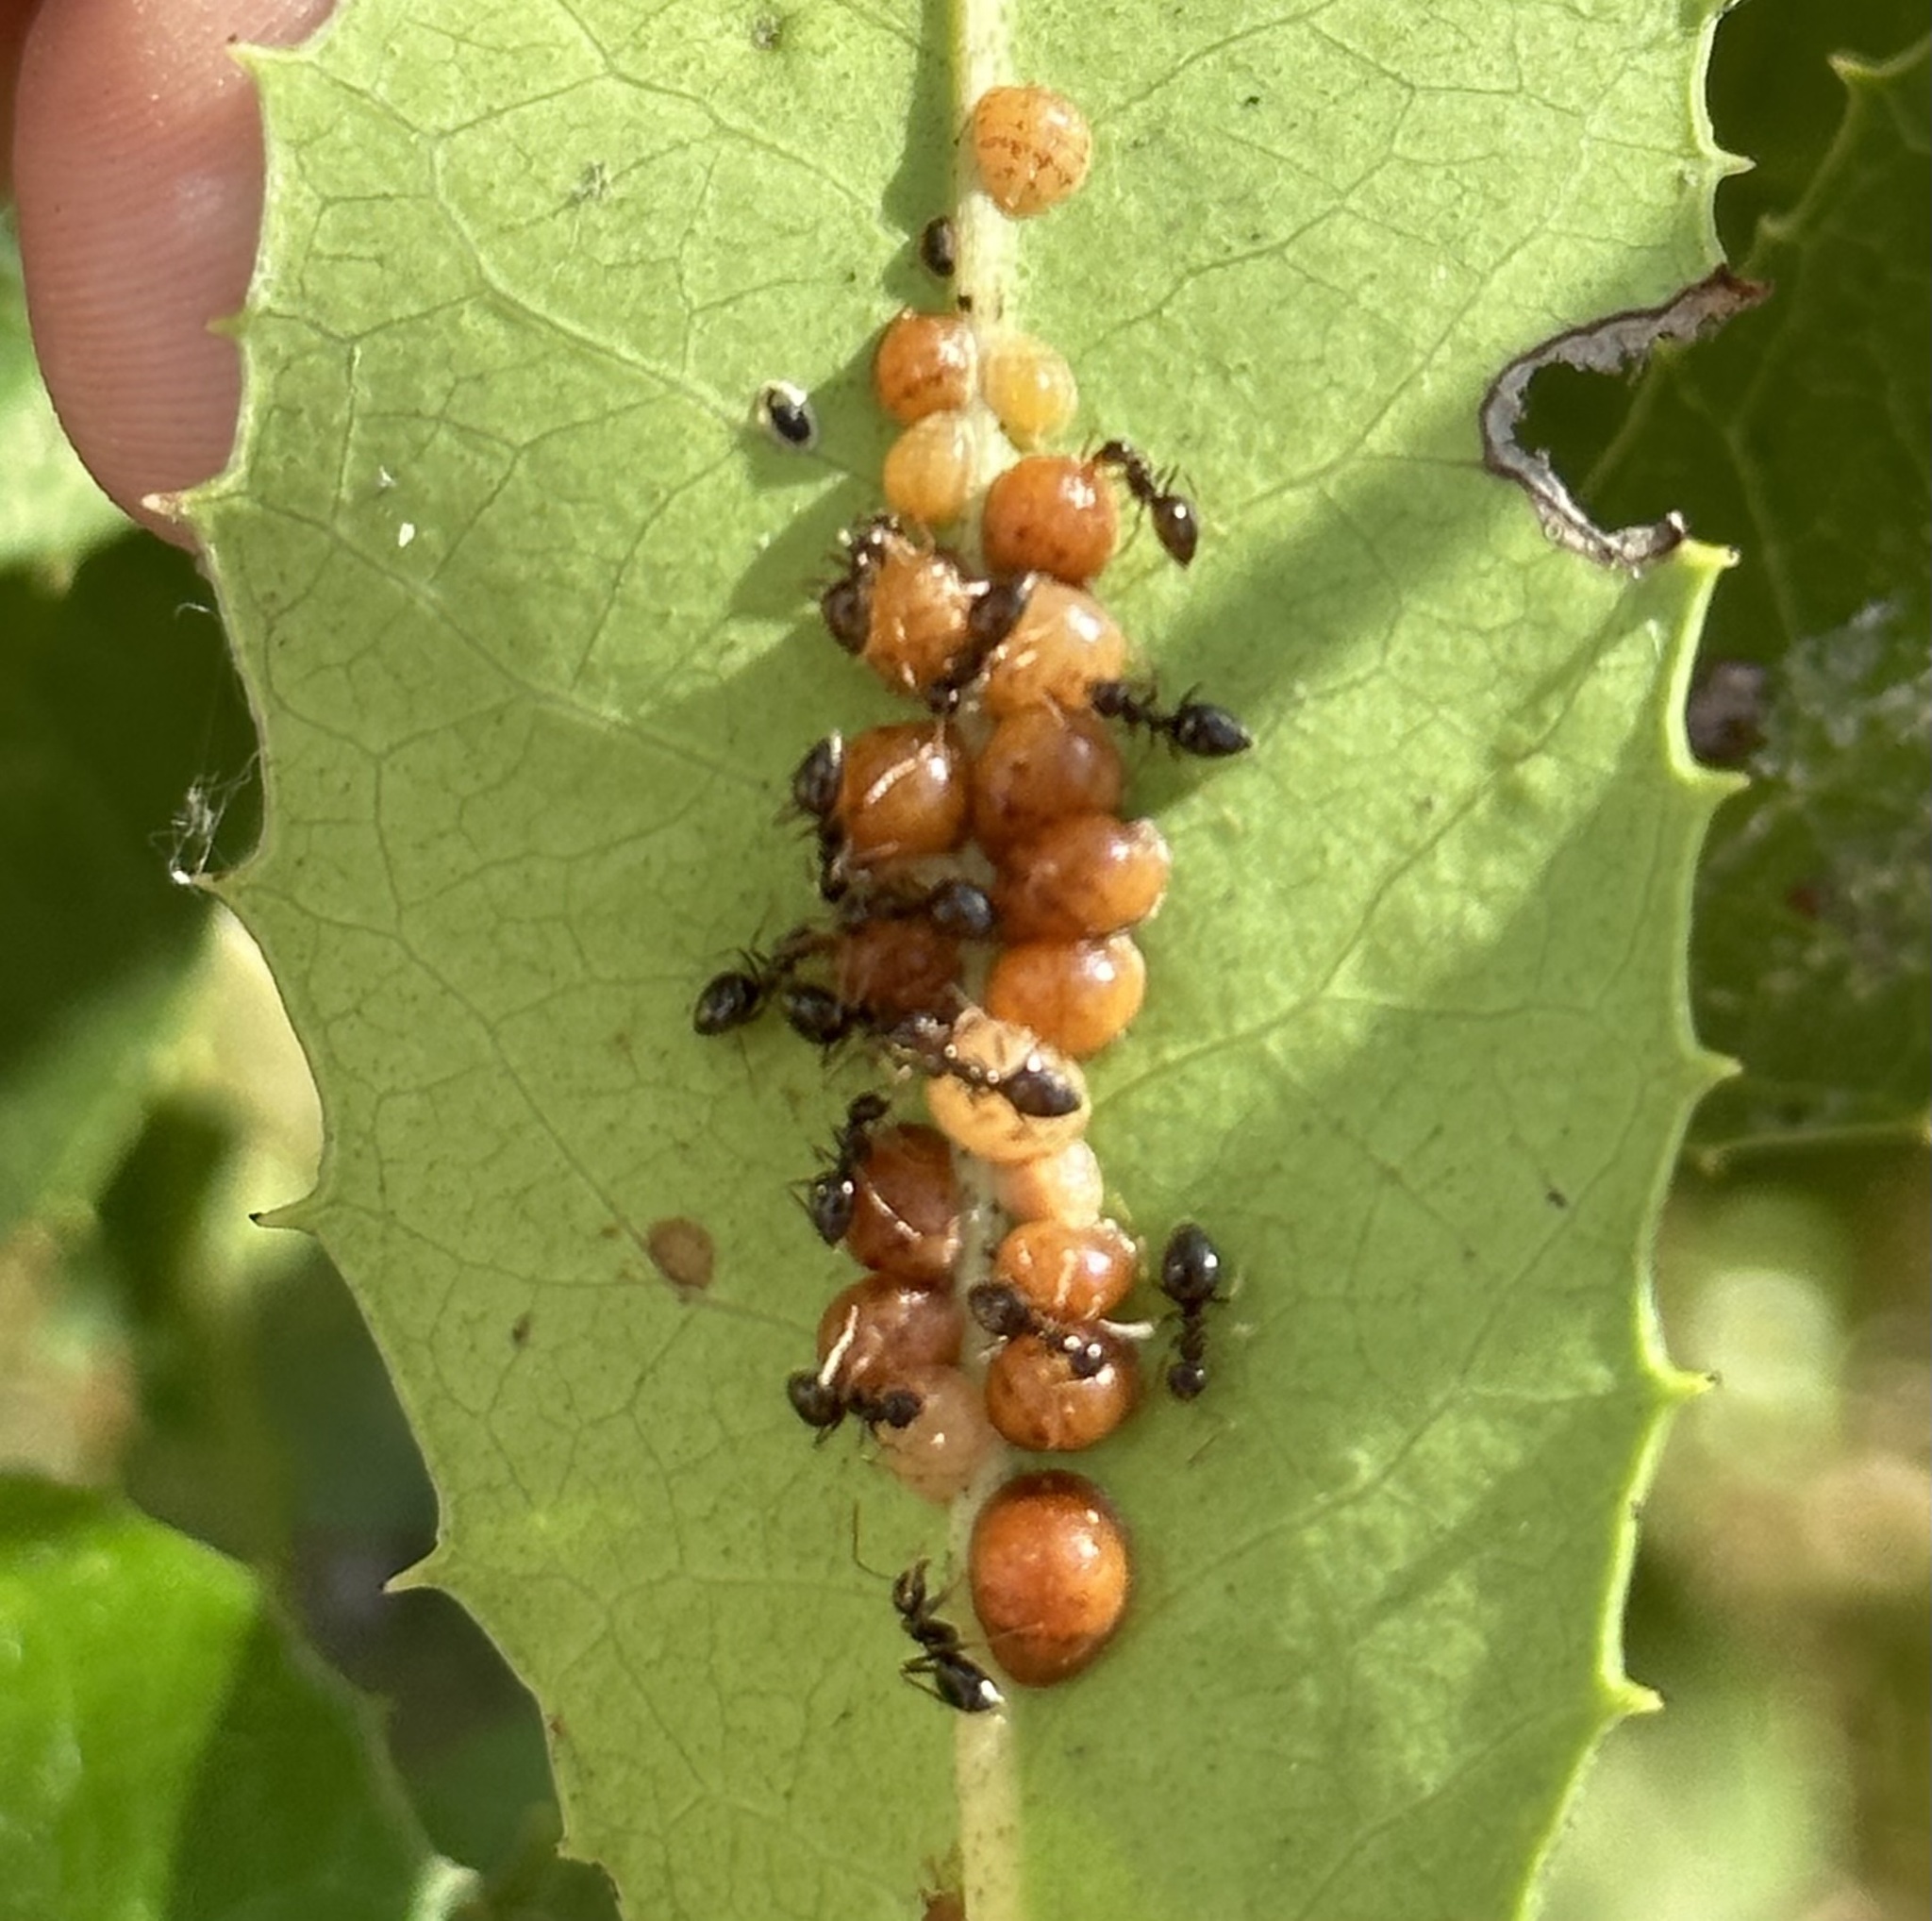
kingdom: Animalia
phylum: Arthropoda
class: Insecta
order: Hymenoptera
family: Formicidae
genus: Prenolepis
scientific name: Prenolepis imparis
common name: Small honey ant
